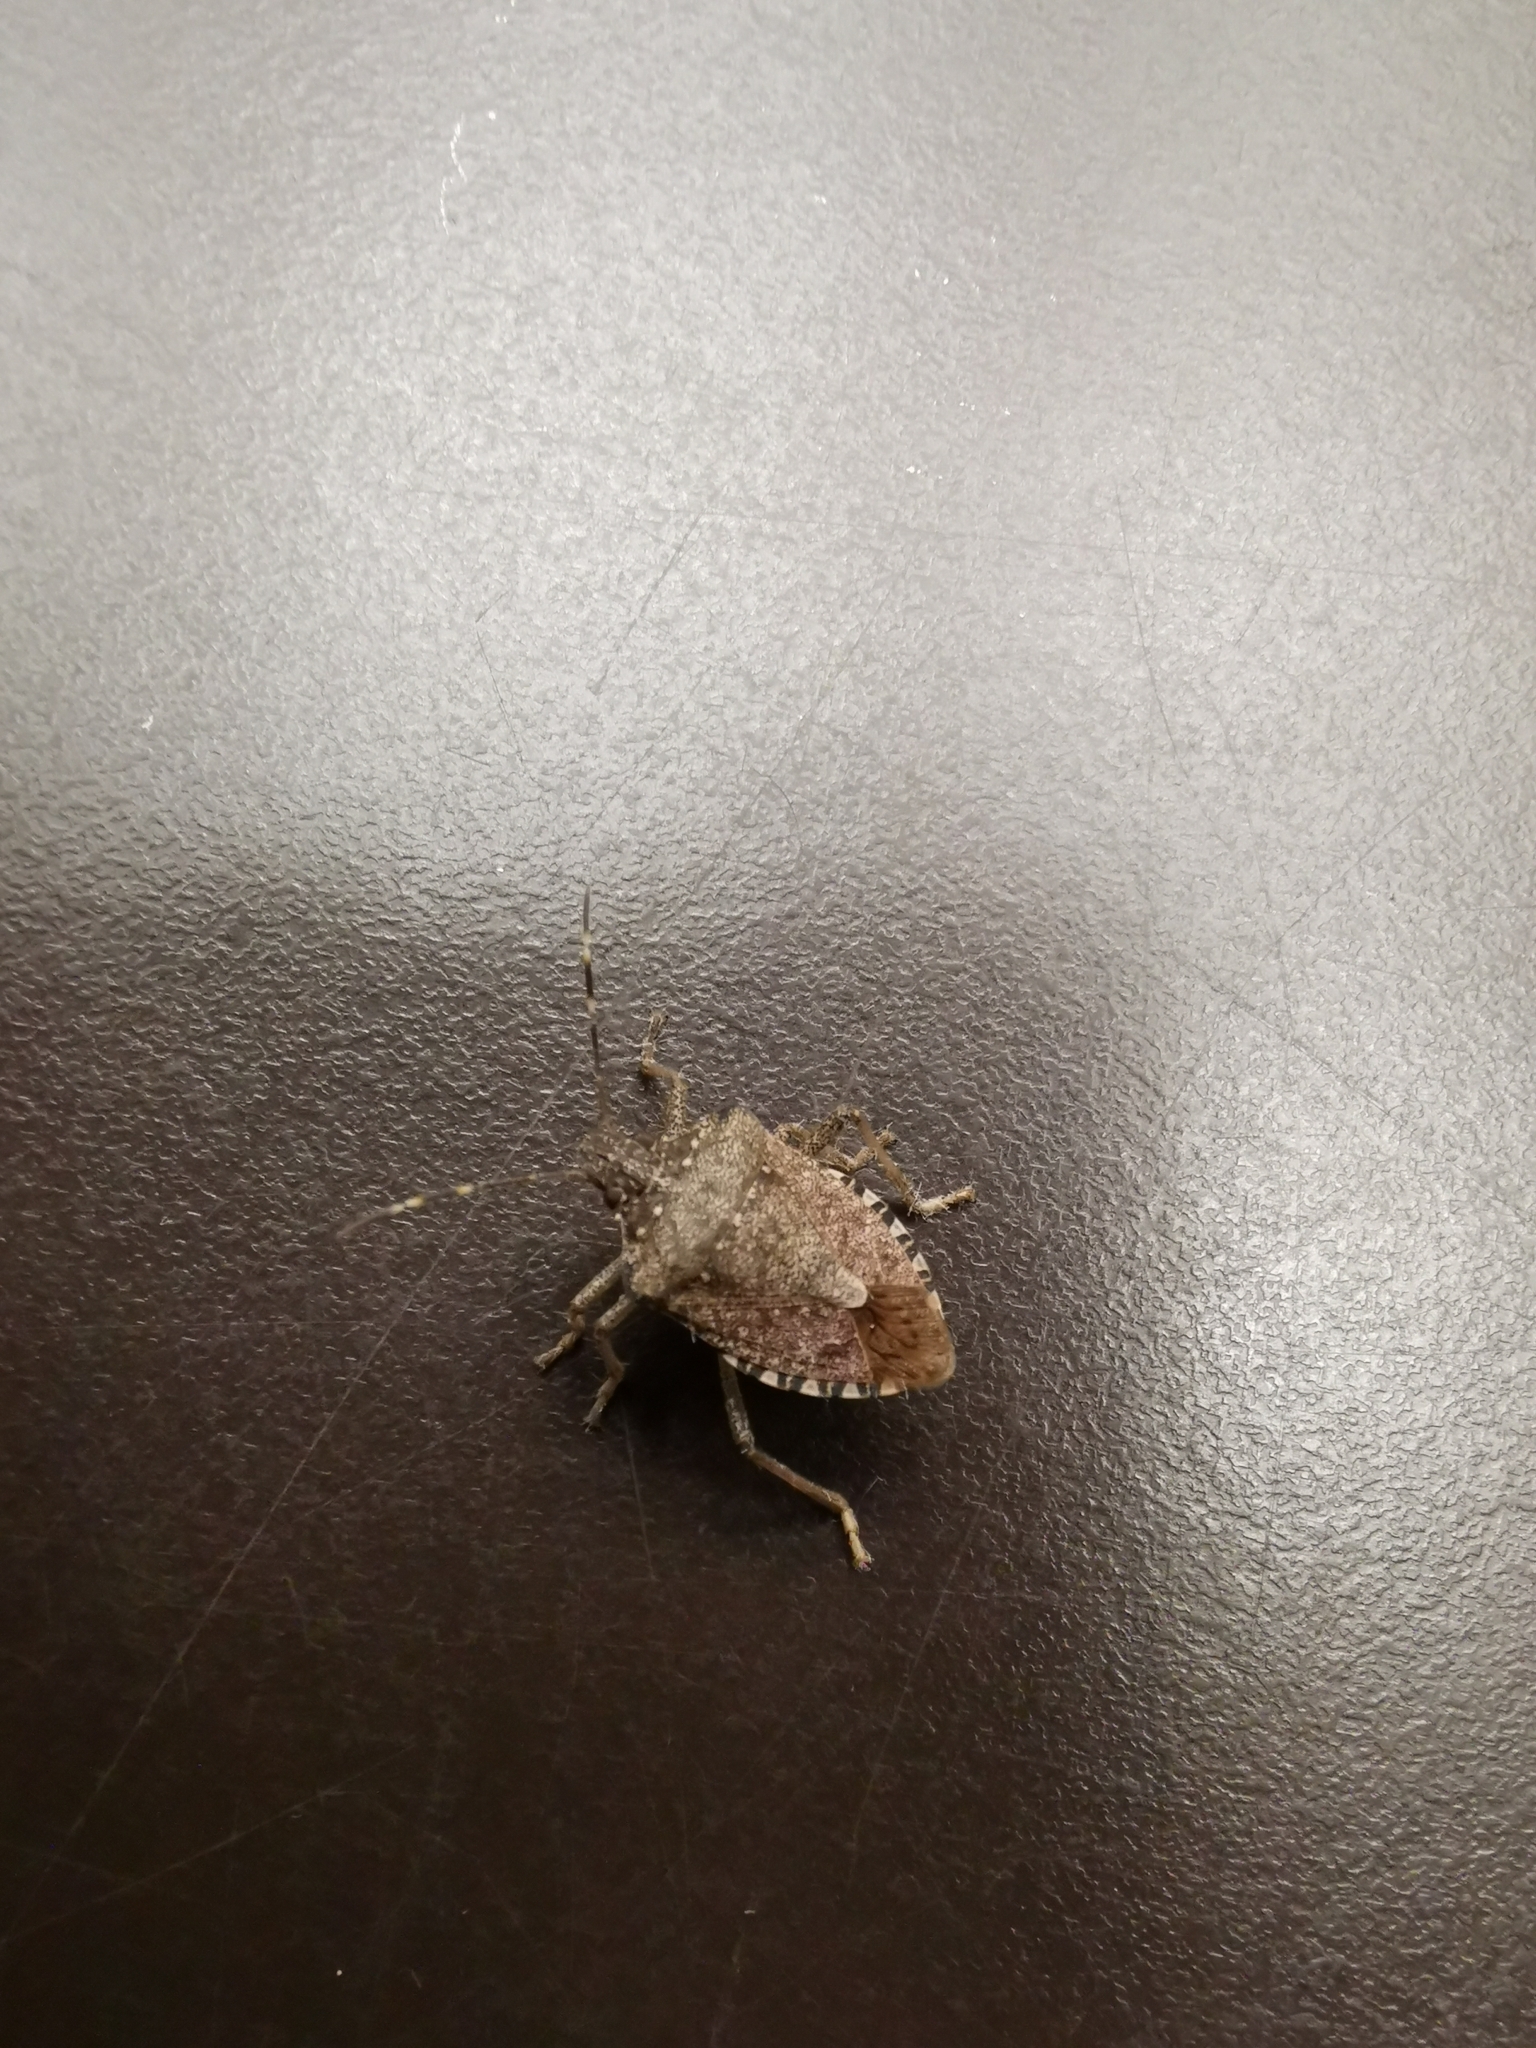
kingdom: Animalia
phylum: Arthropoda
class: Insecta
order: Hemiptera
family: Pentatomidae
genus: Halyomorpha
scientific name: Halyomorpha halys
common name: Brown marmorated stink bug
